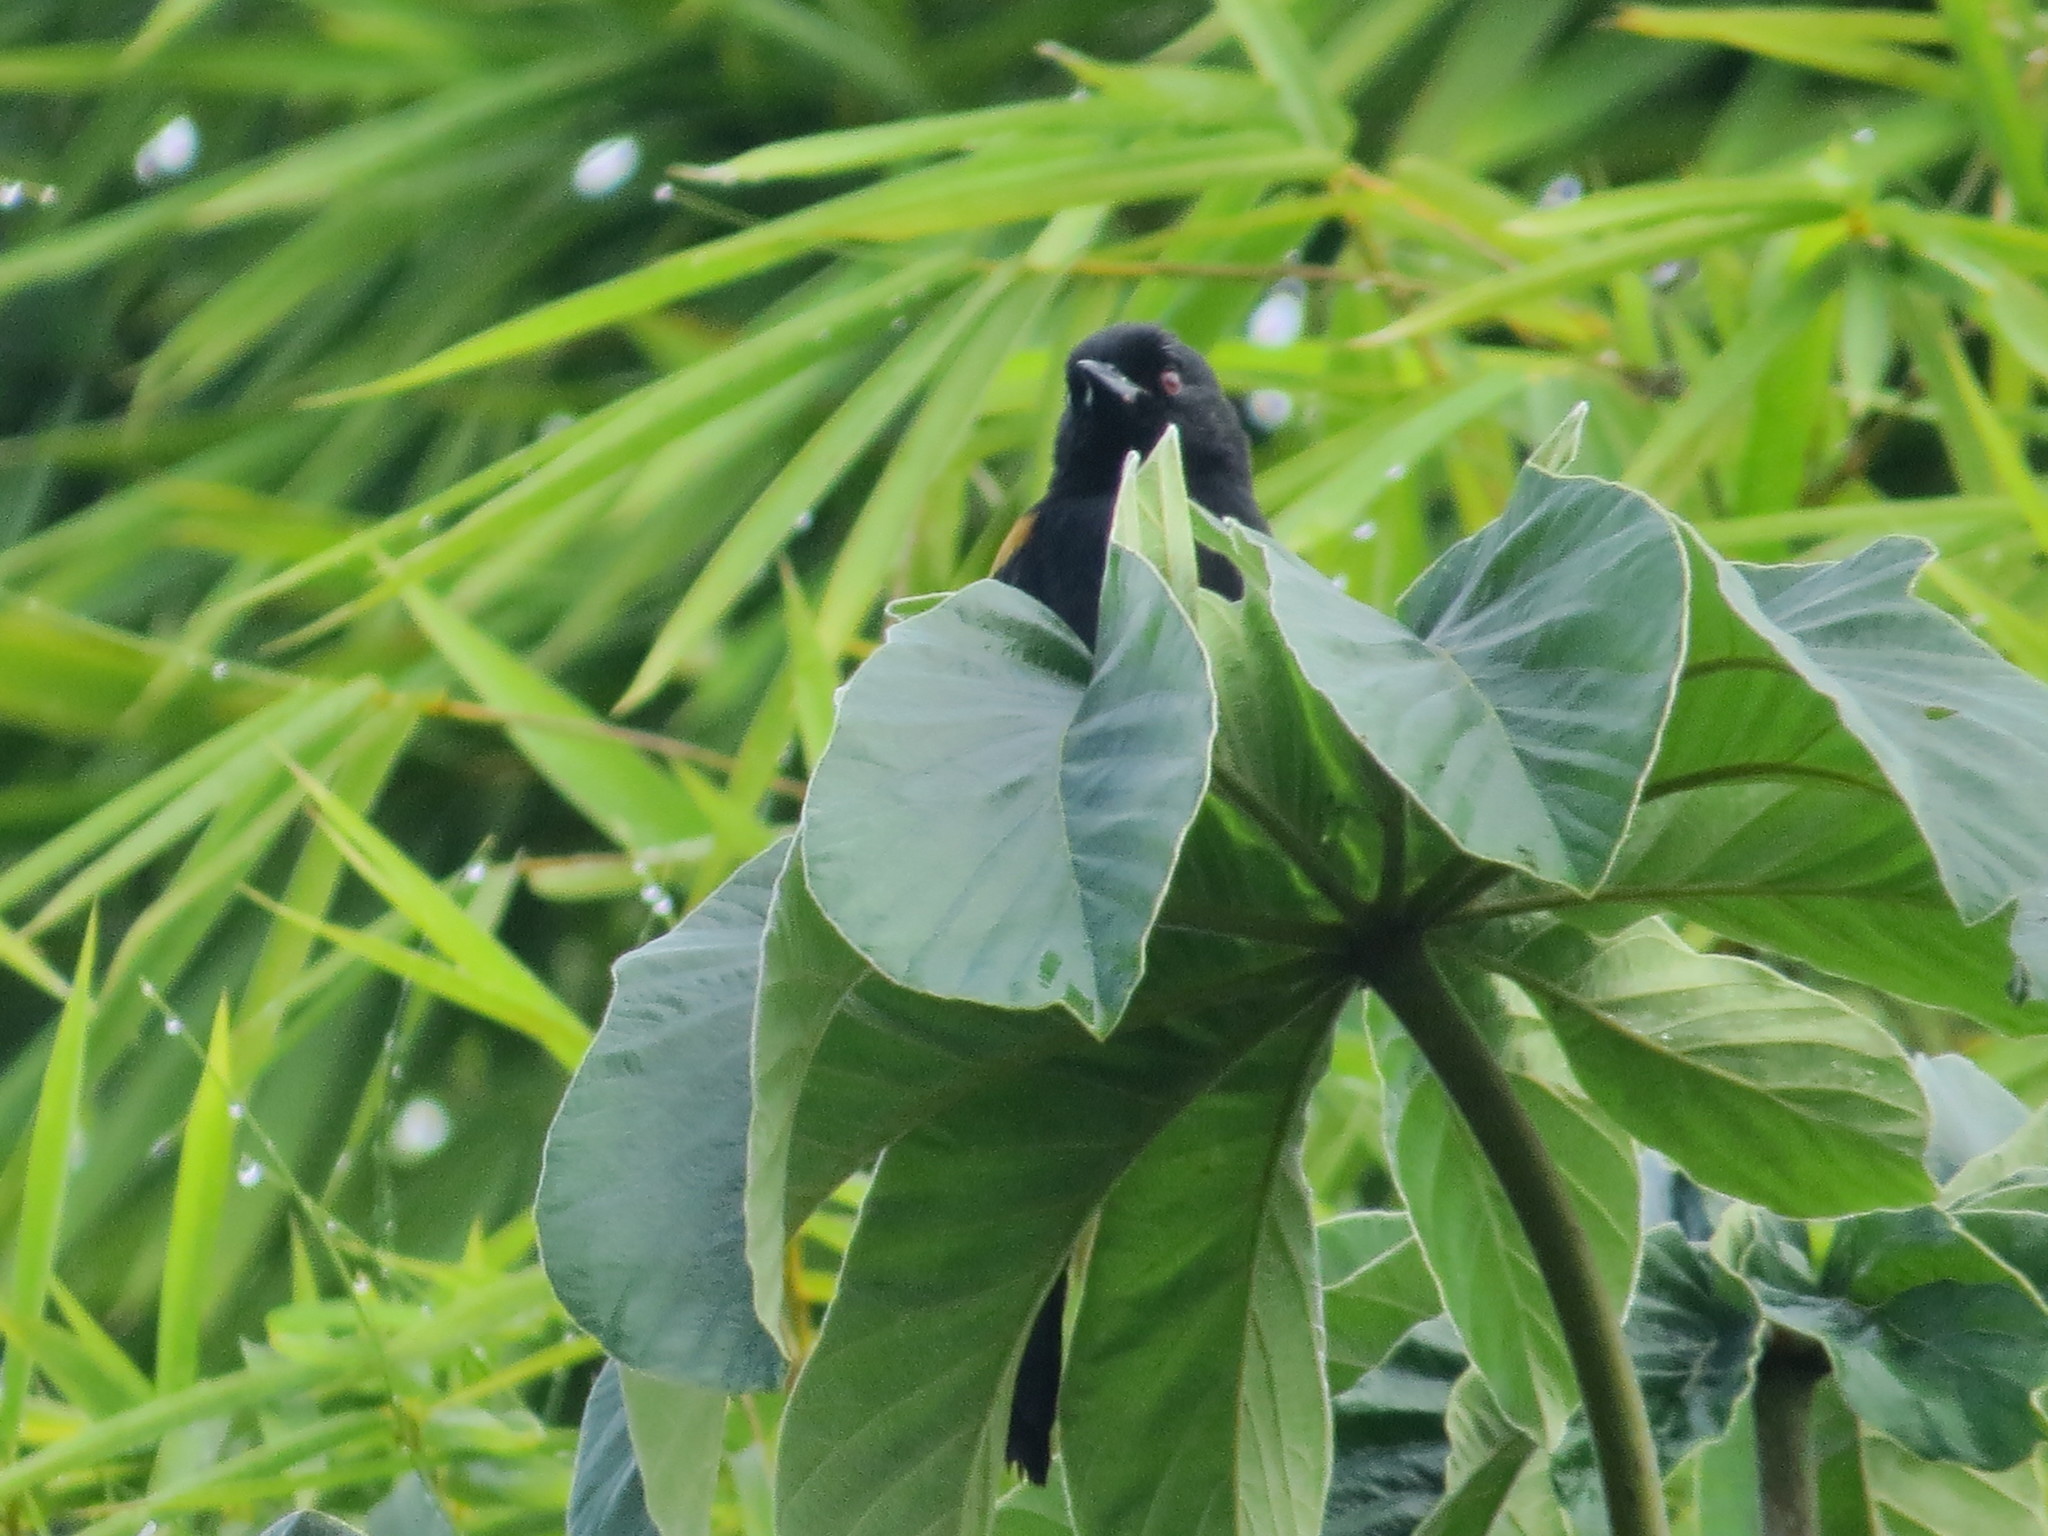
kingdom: Animalia
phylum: Chordata
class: Aves
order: Passeriformes
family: Icteridae
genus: Icterus
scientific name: Icterus cayanensis
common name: Epaulet oriole
